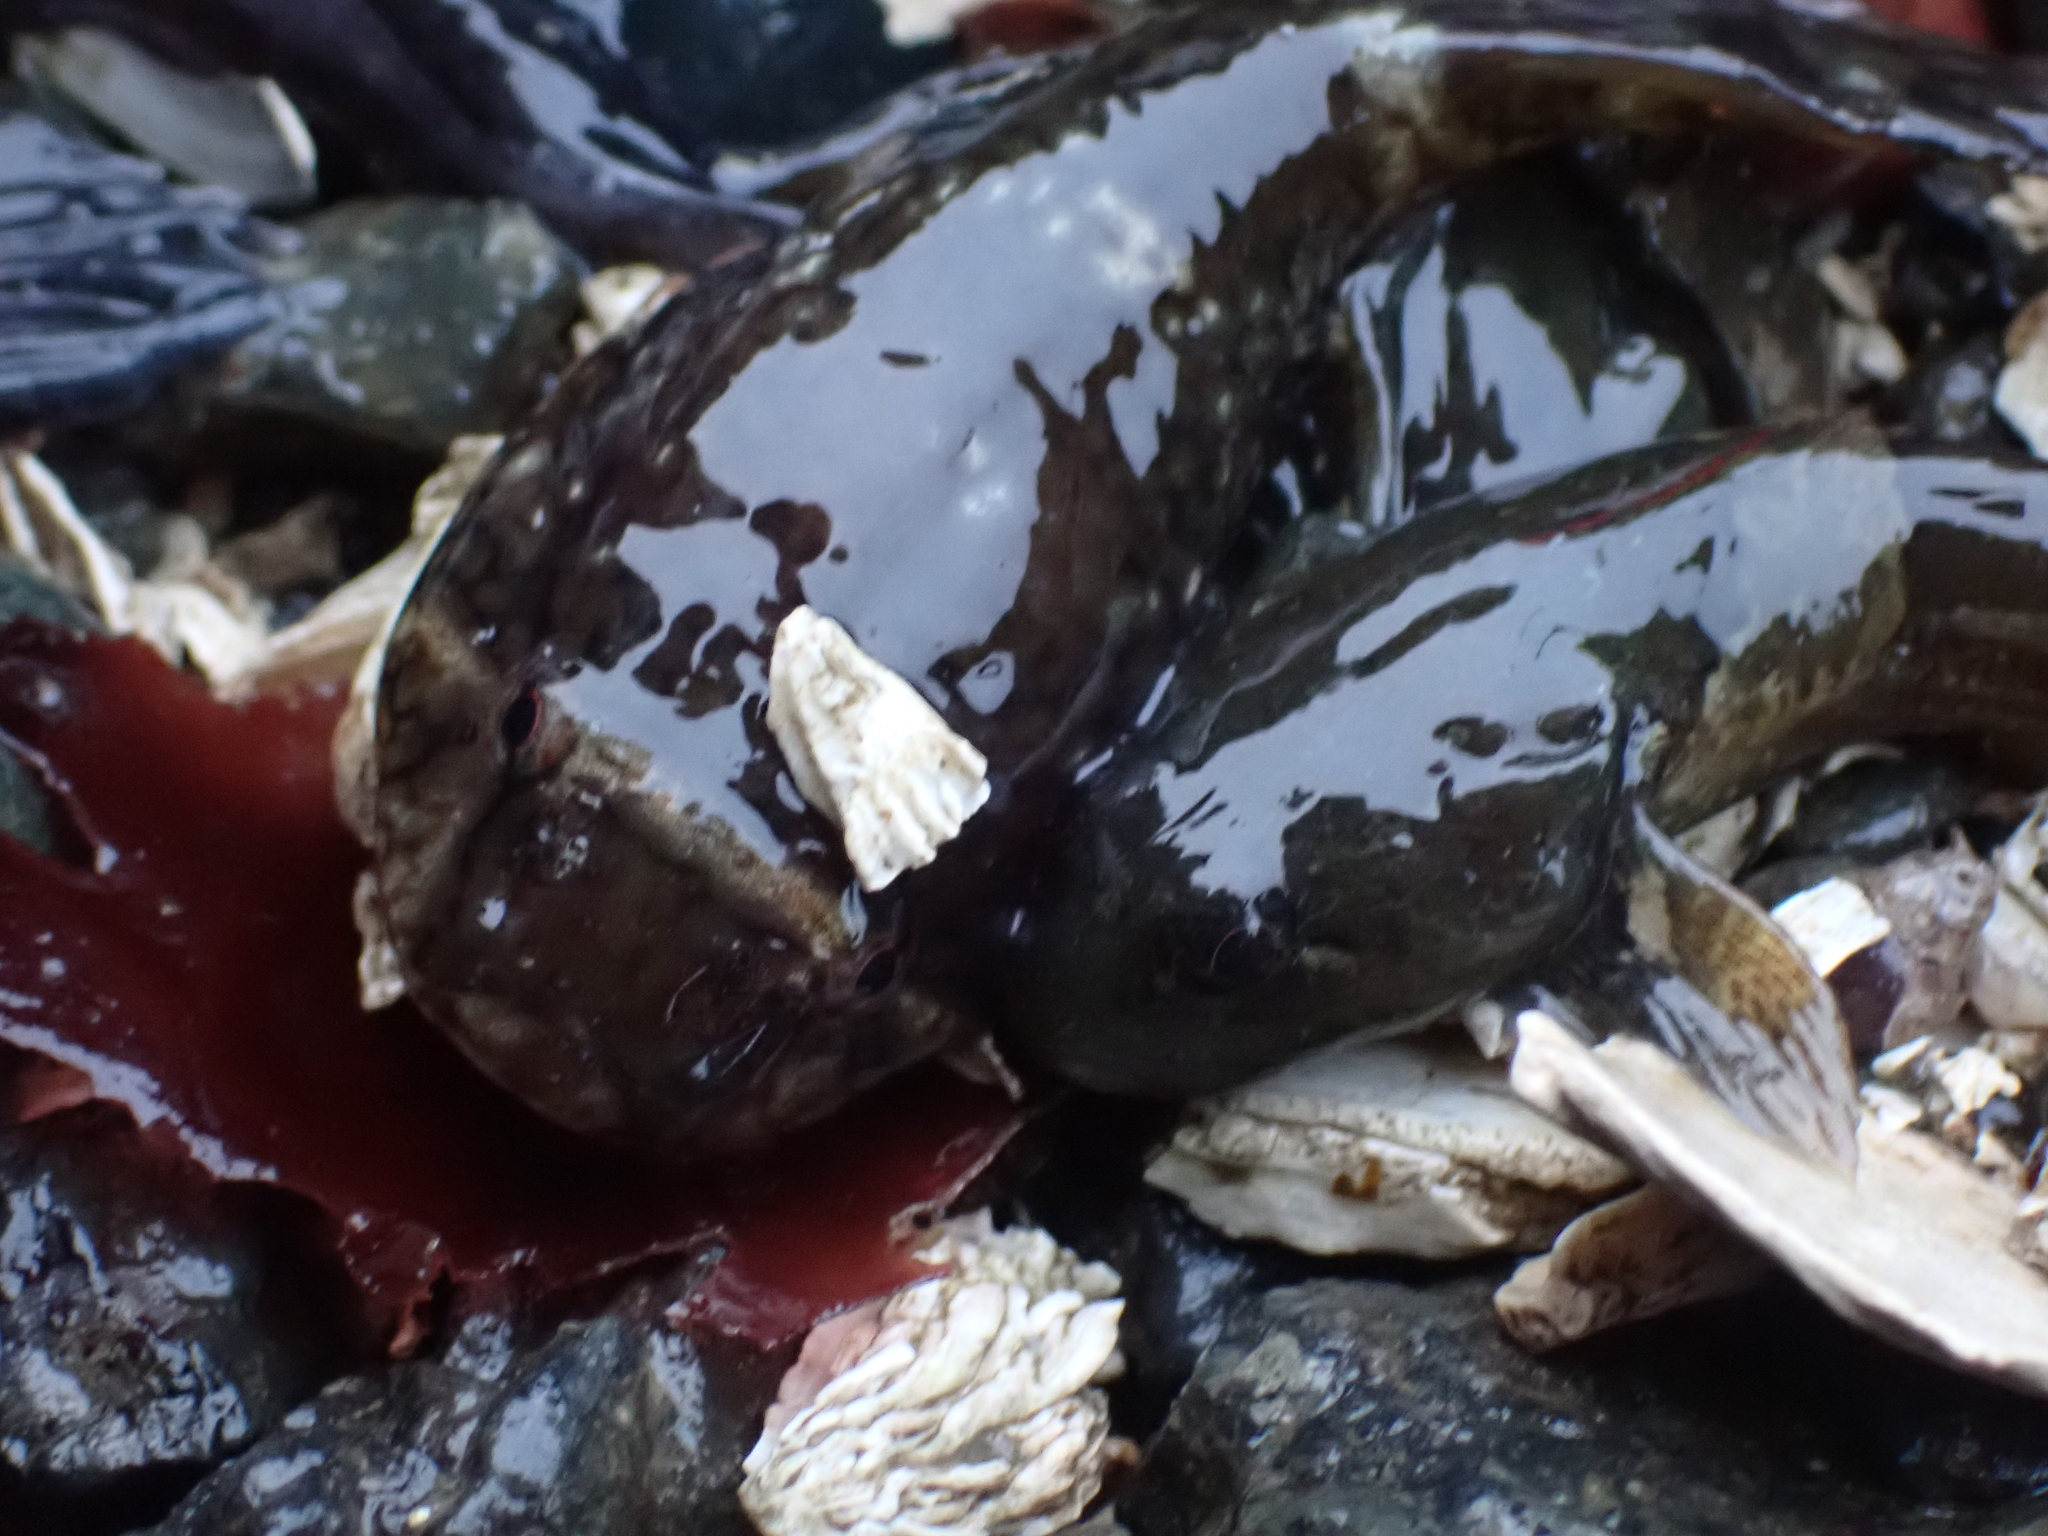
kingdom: Animalia
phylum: Chordata
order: Scorpaeniformes
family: Cottidae
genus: Ascelichthys
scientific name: Ascelichthys rhodorus
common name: Rosylip sculpin
